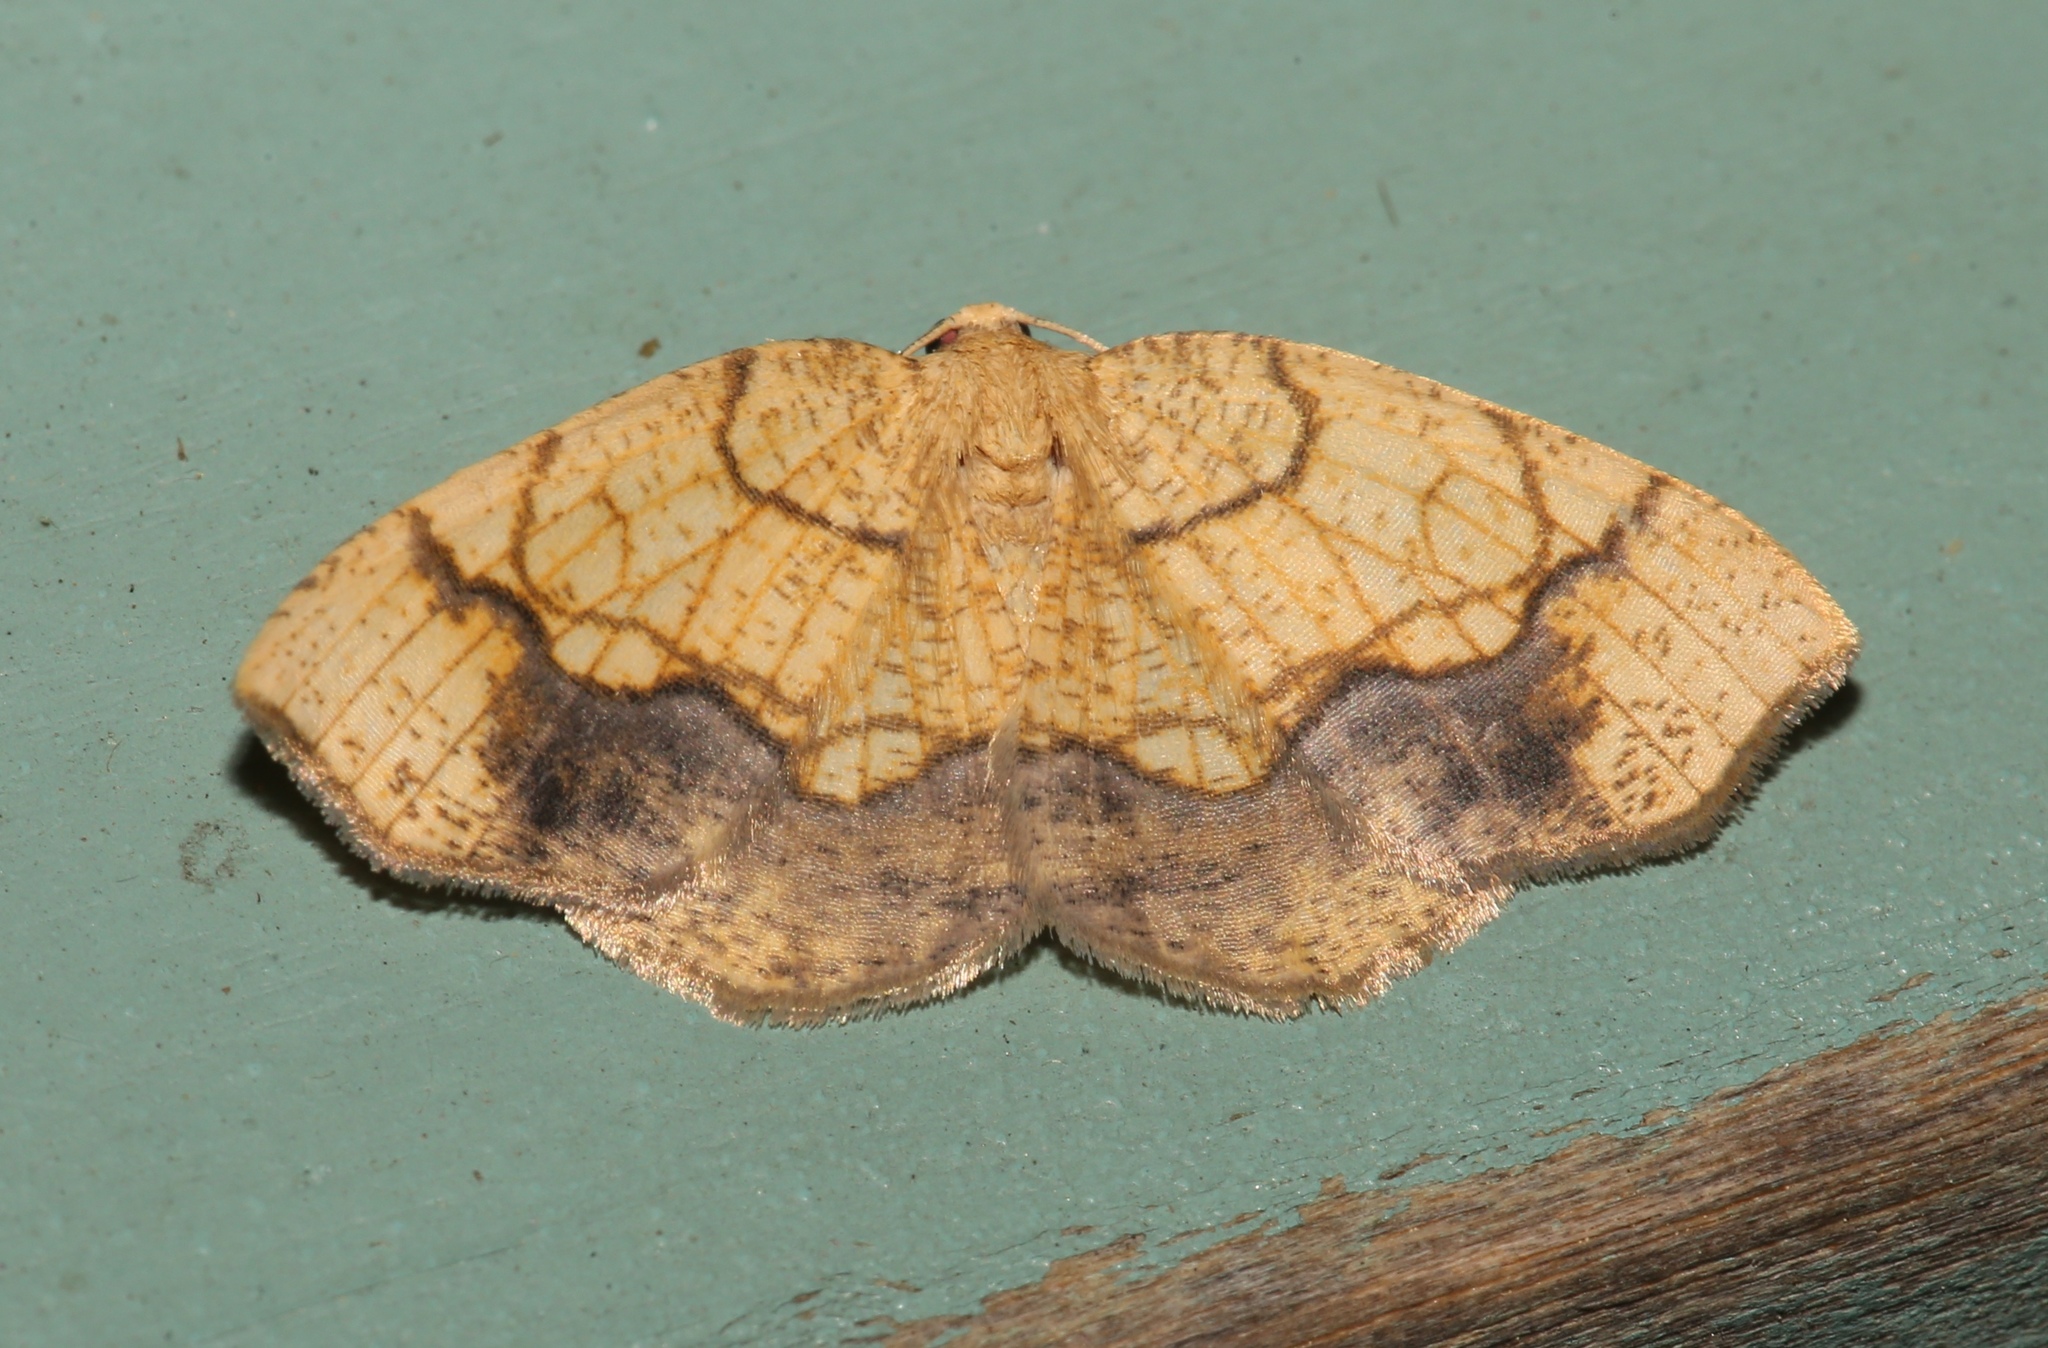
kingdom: Animalia
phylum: Arthropoda
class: Insecta
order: Lepidoptera
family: Geometridae
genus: Nematocampa
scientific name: Nematocampa resistaria
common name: Horned spanworm moth
